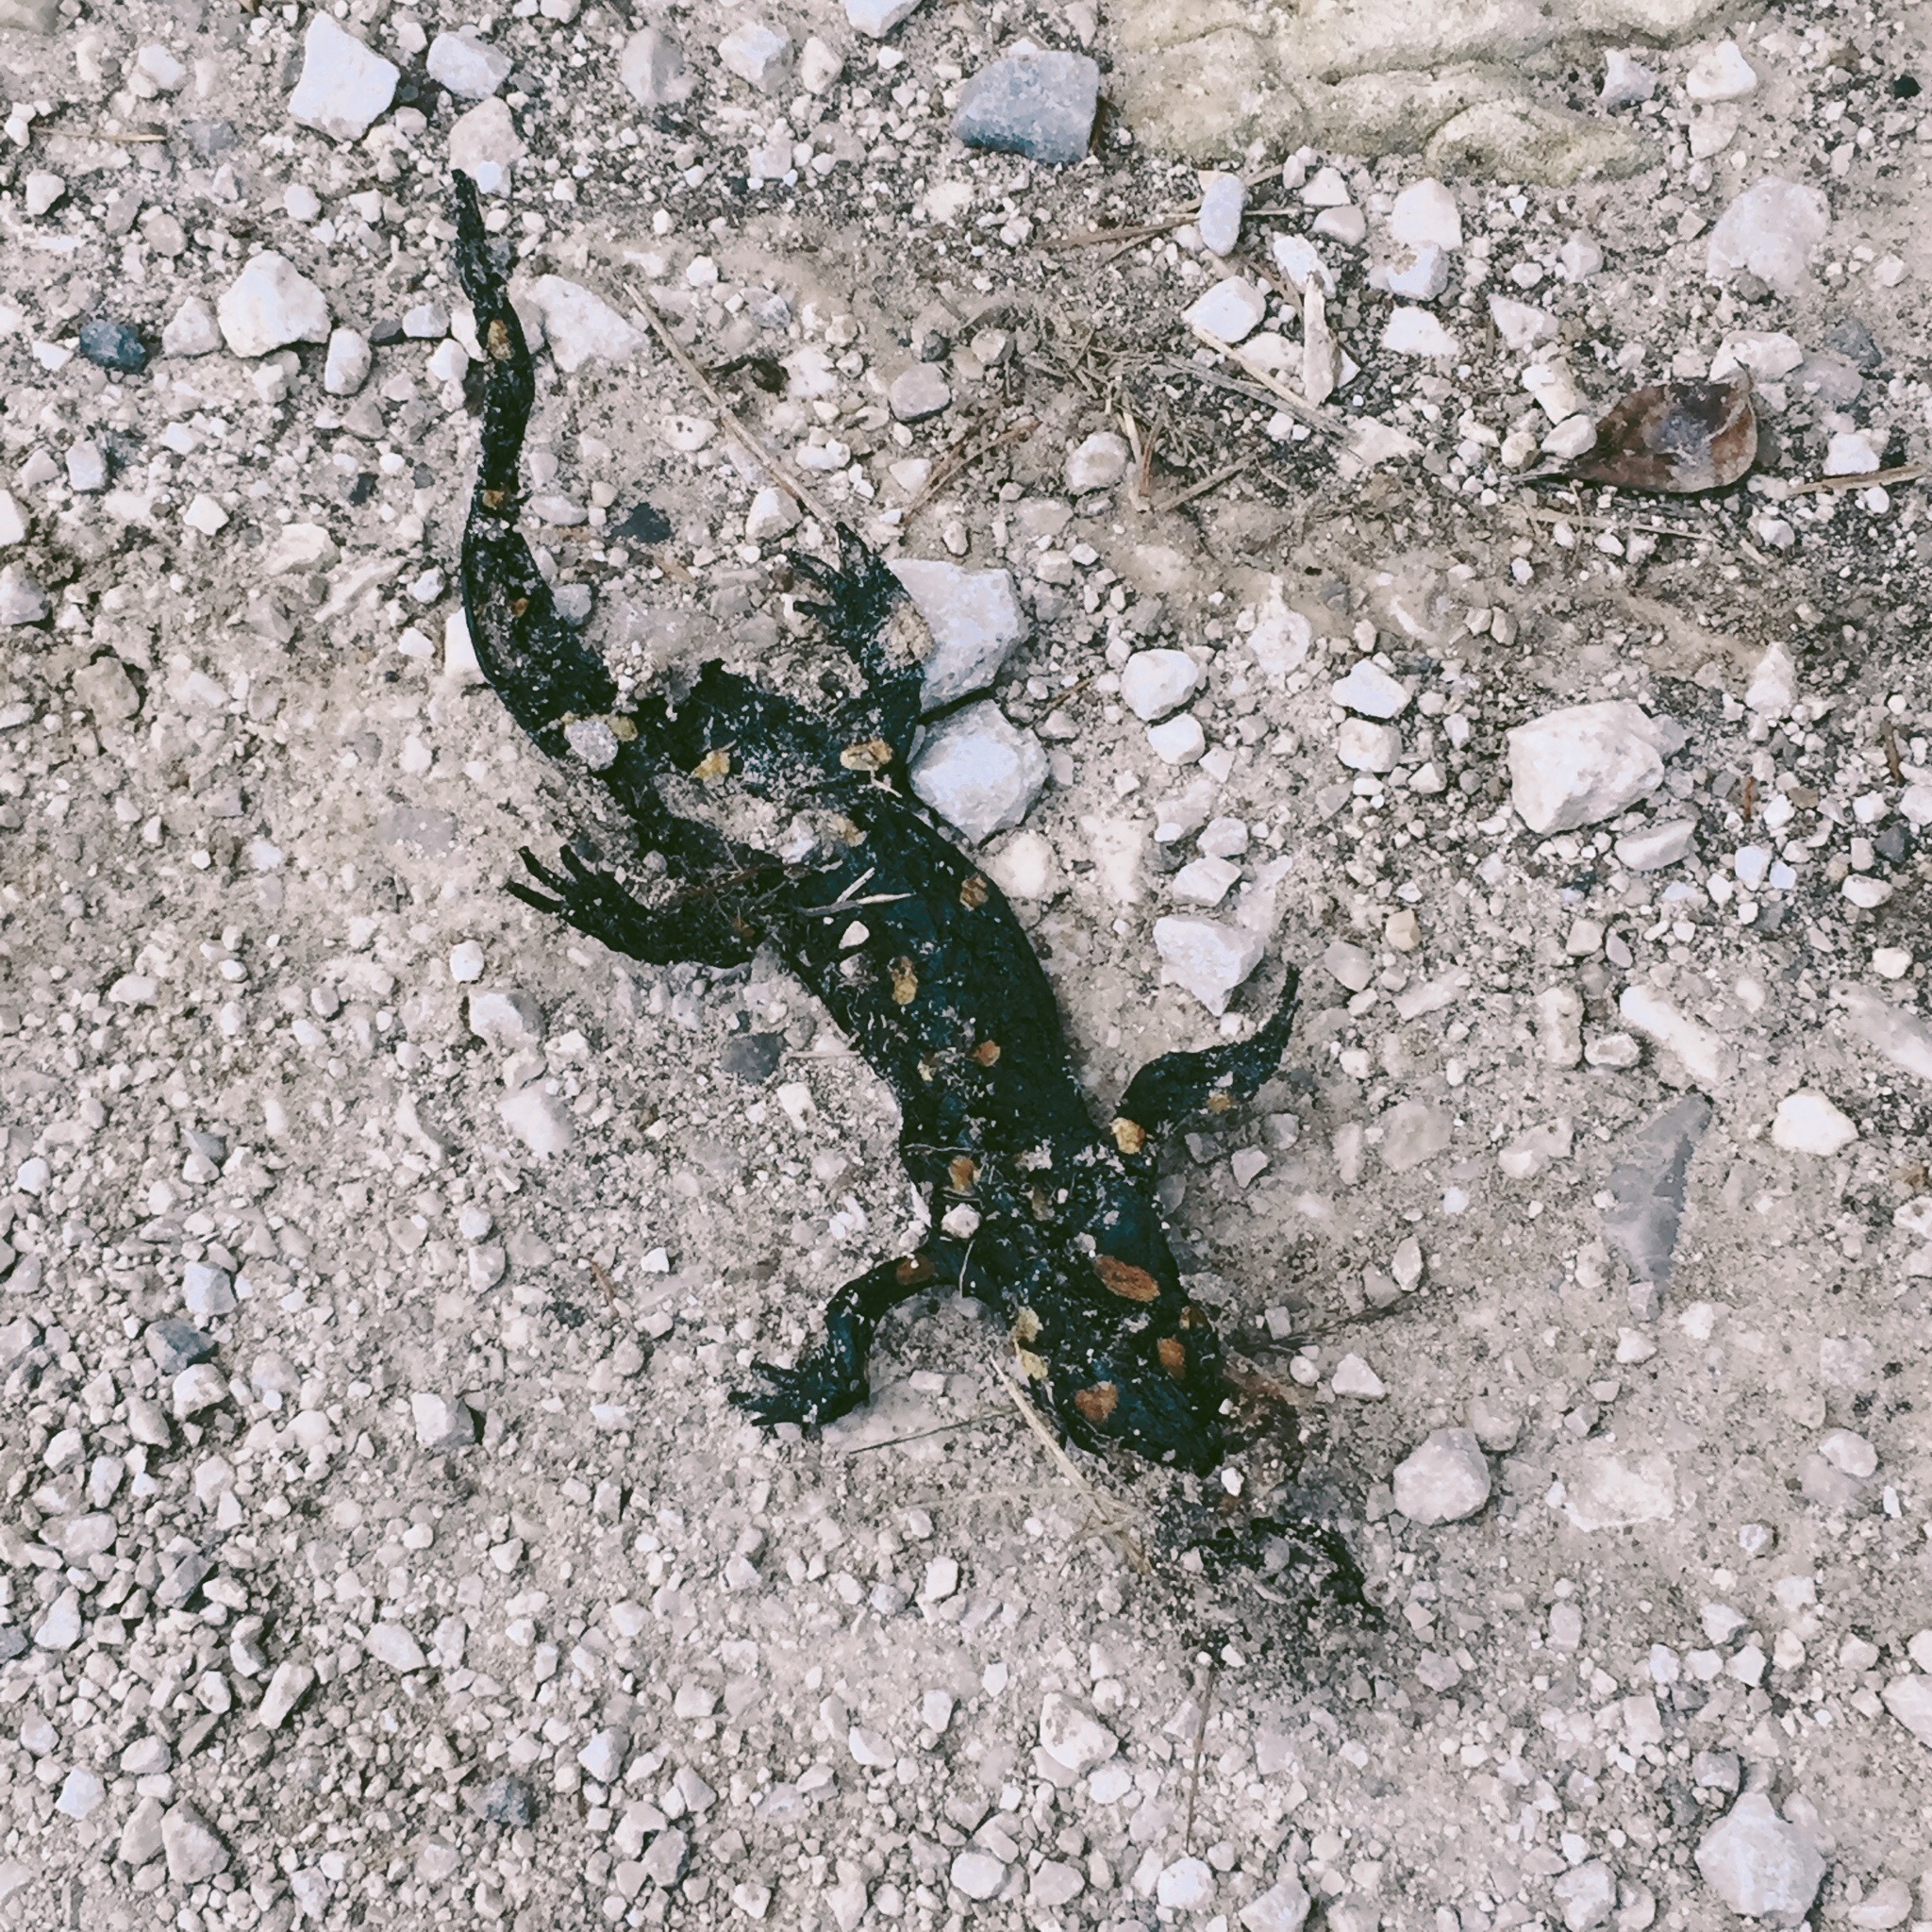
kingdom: Animalia
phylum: Chordata
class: Amphibia
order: Caudata
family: Salamandridae
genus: Salamandra
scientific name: Salamandra salamandra
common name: Fire salamander
